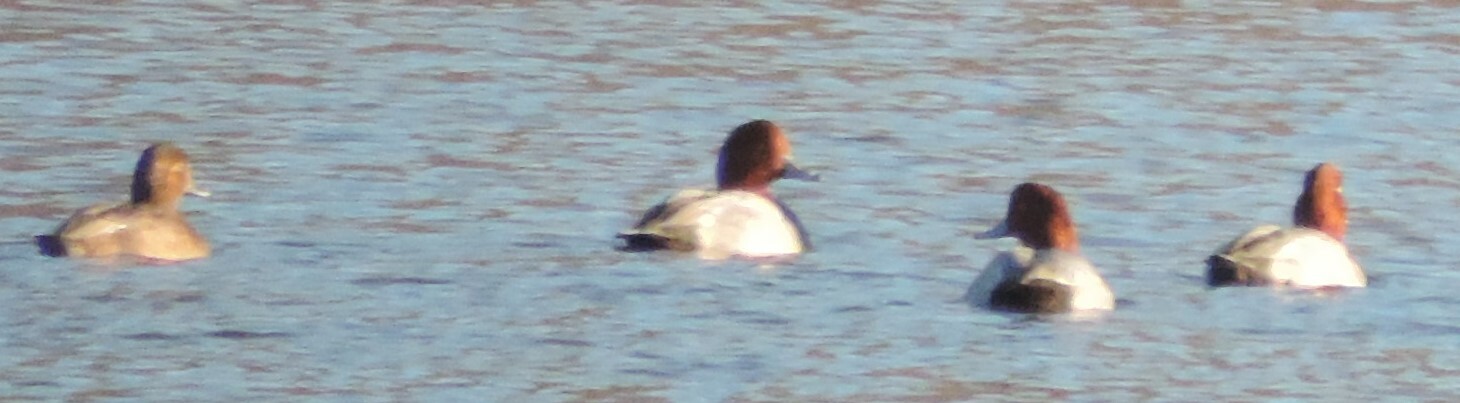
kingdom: Animalia
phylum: Chordata
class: Aves
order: Anseriformes
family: Anatidae
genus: Aythya
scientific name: Aythya americana
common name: Redhead
